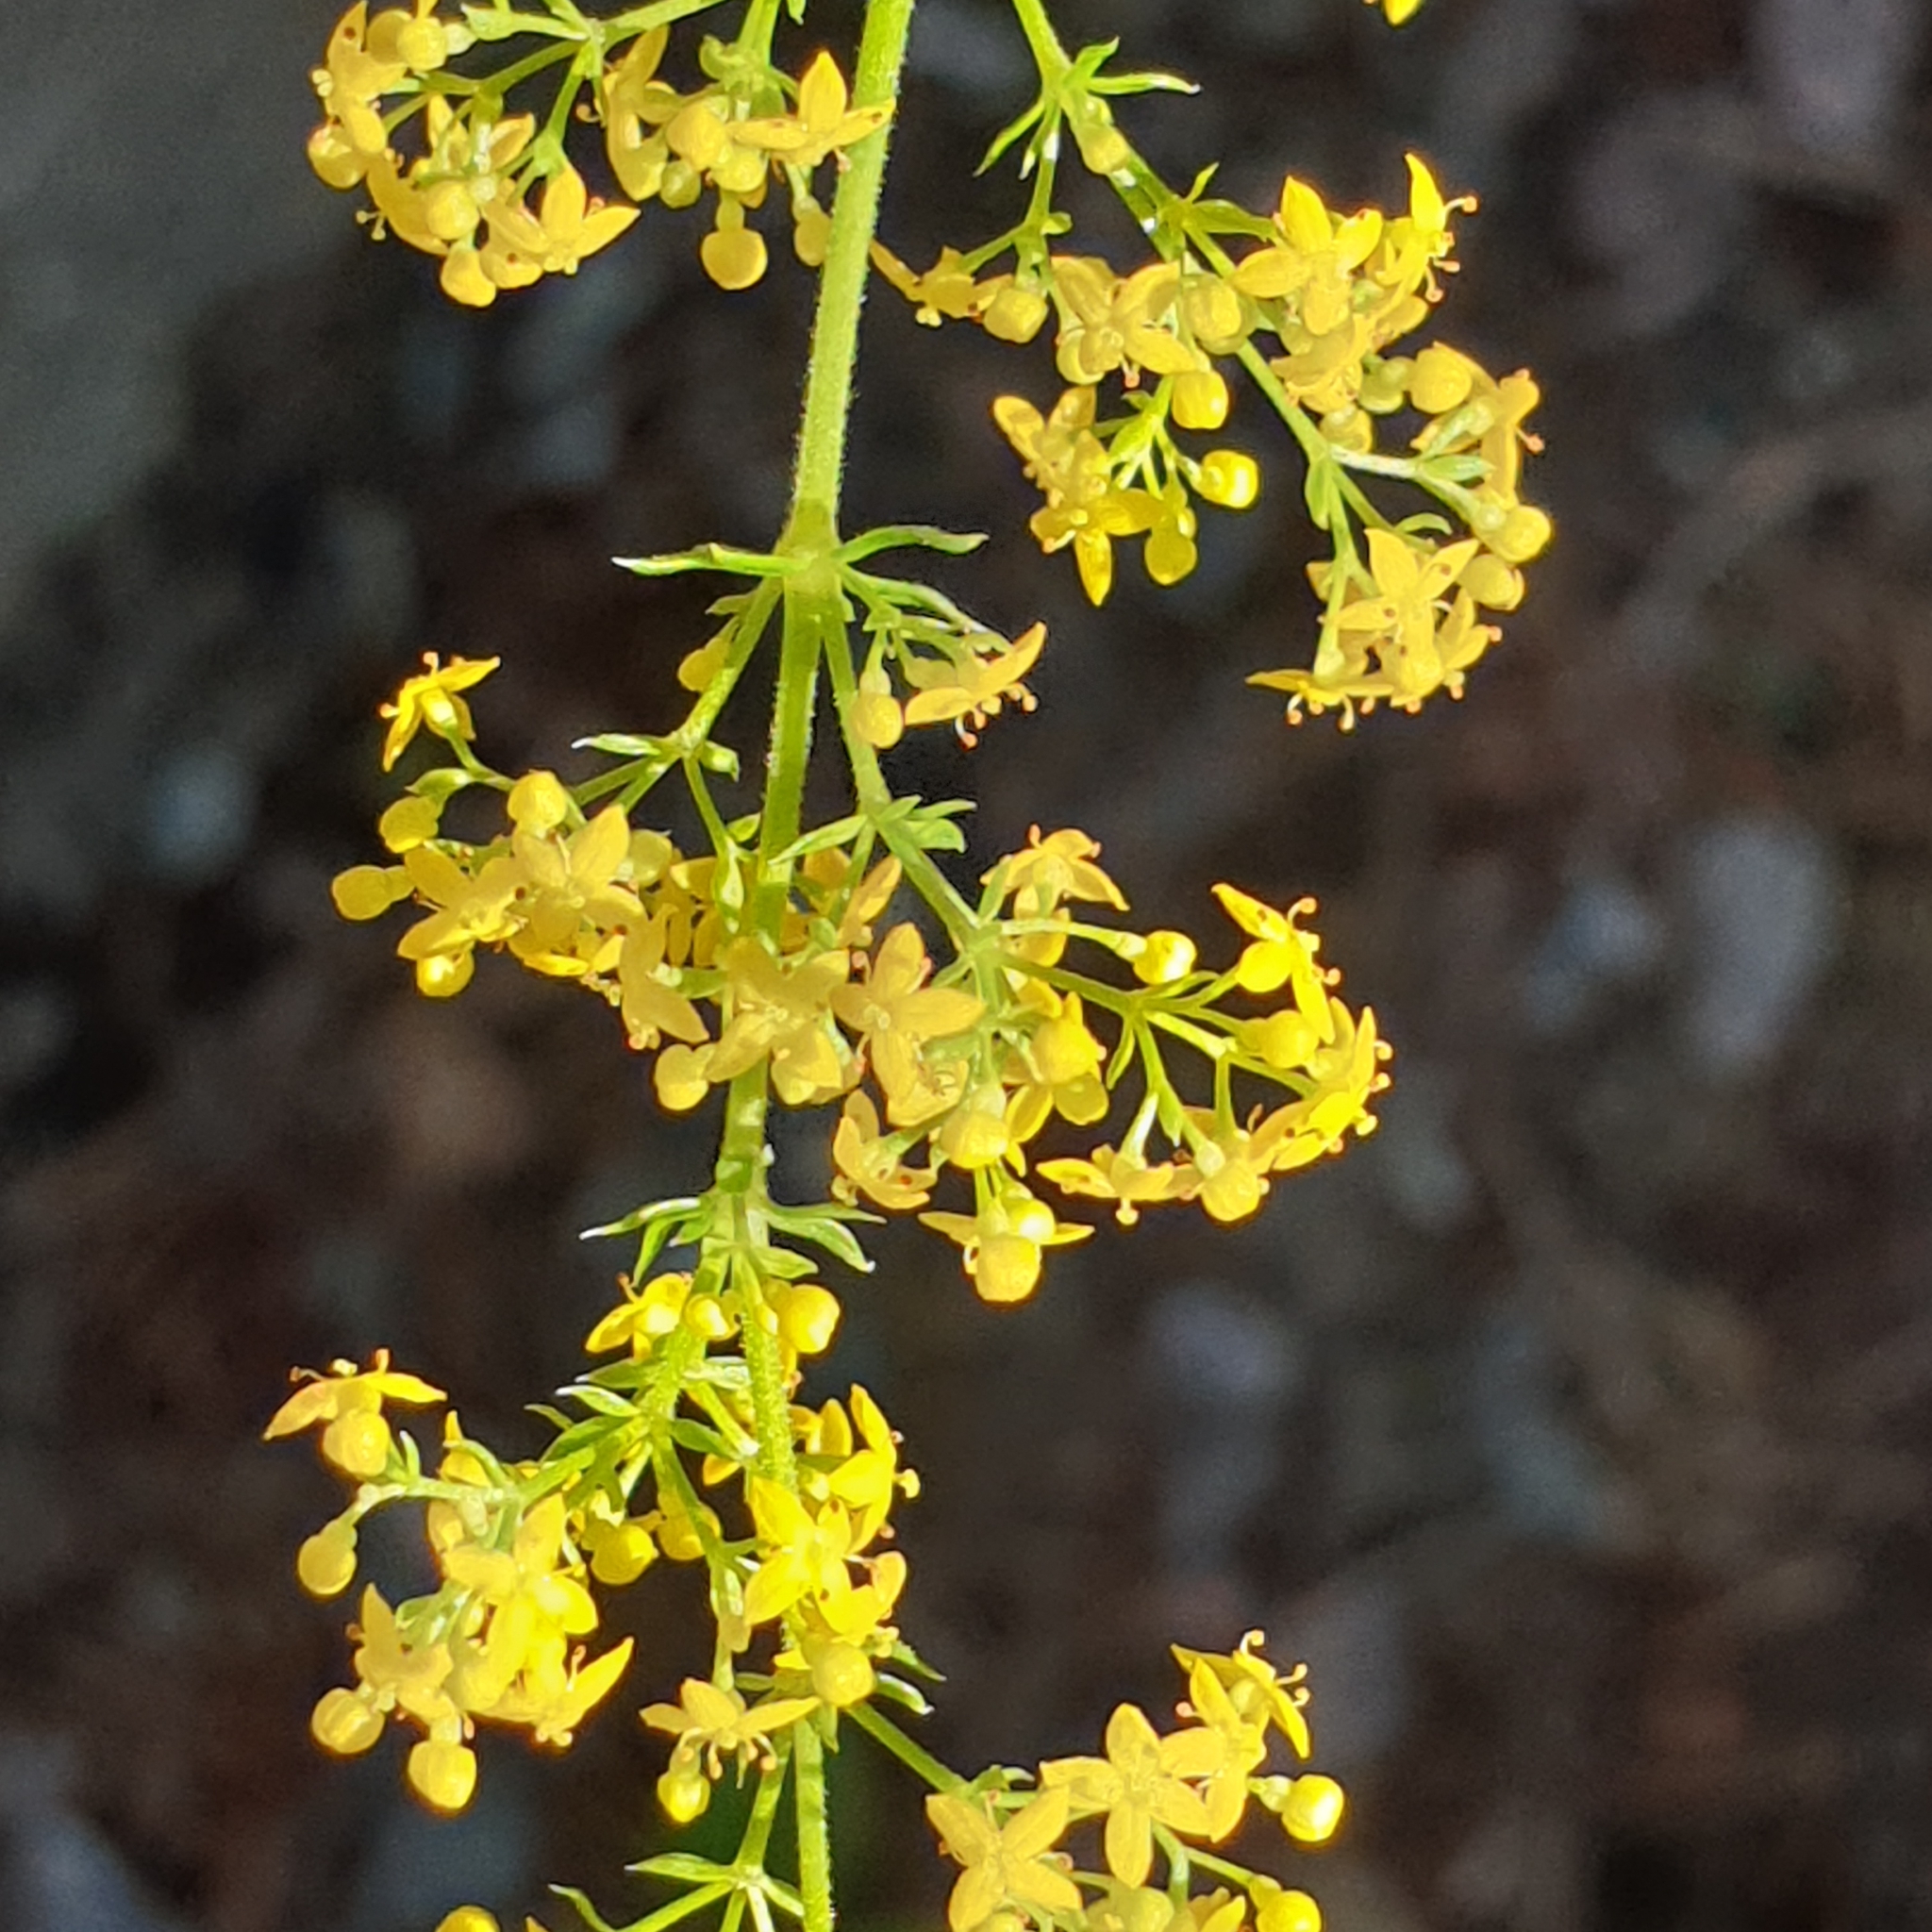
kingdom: Plantae
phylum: Tracheophyta
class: Magnoliopsida
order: Gentianales
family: Rubiaceae
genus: Galium
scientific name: Galium verum
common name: Lady's bedstraw
